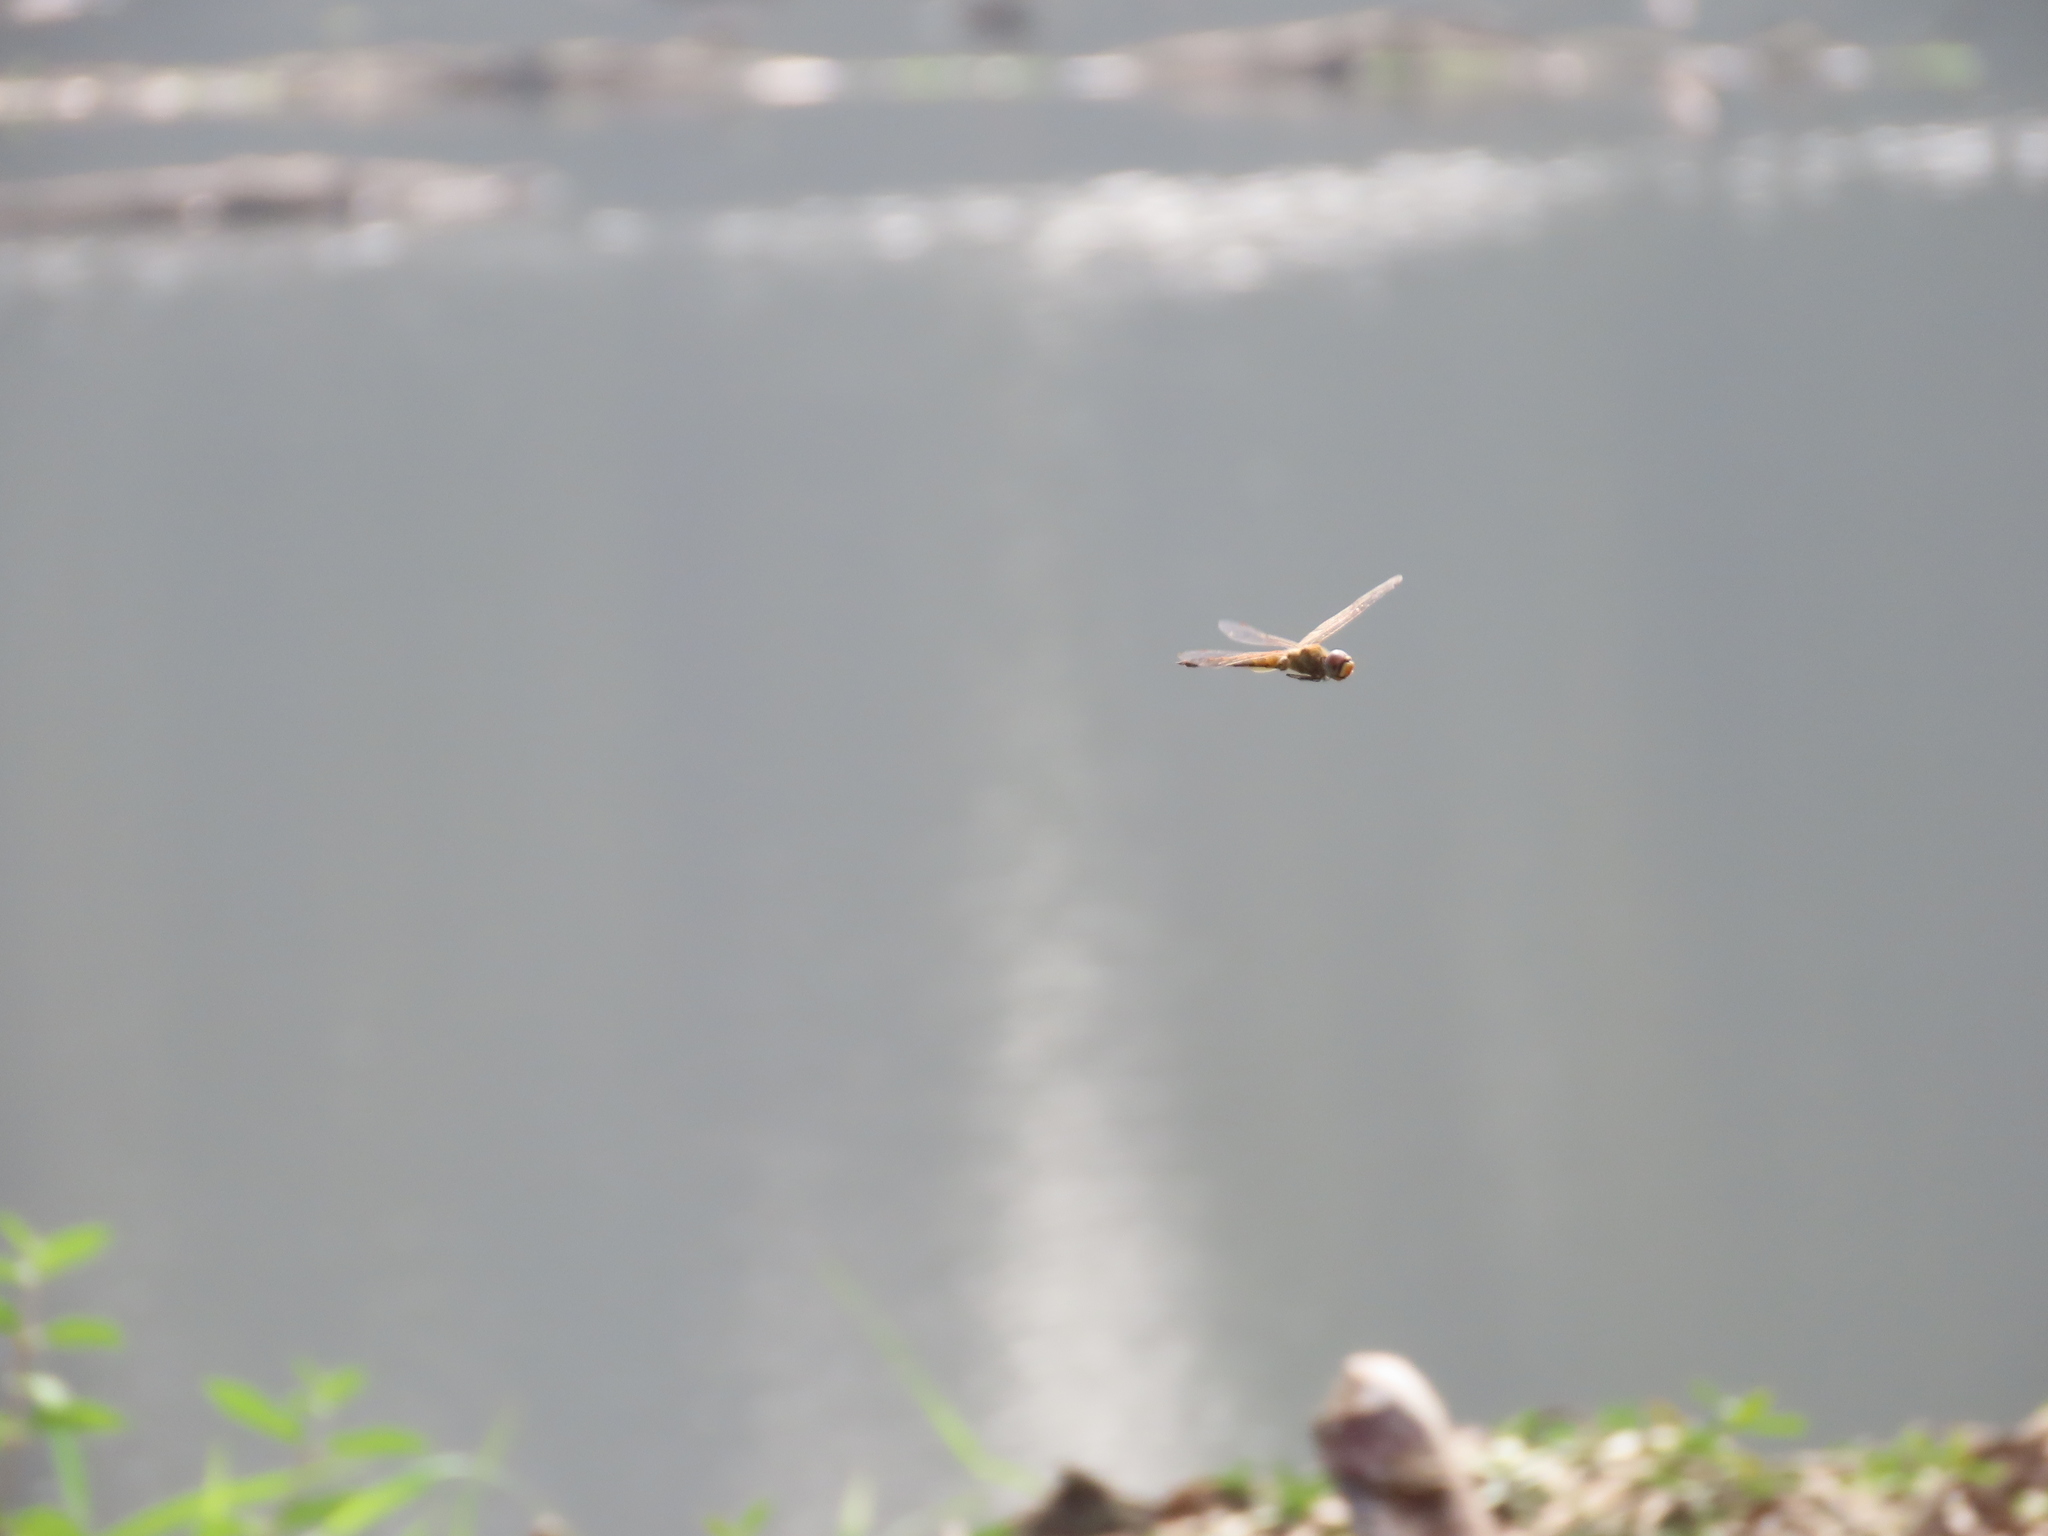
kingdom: Animalia
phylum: Arthropoda
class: Insecta
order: Odonata
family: Libellulidae
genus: Pantala
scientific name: Pantala flavescens
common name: Wandering glider
